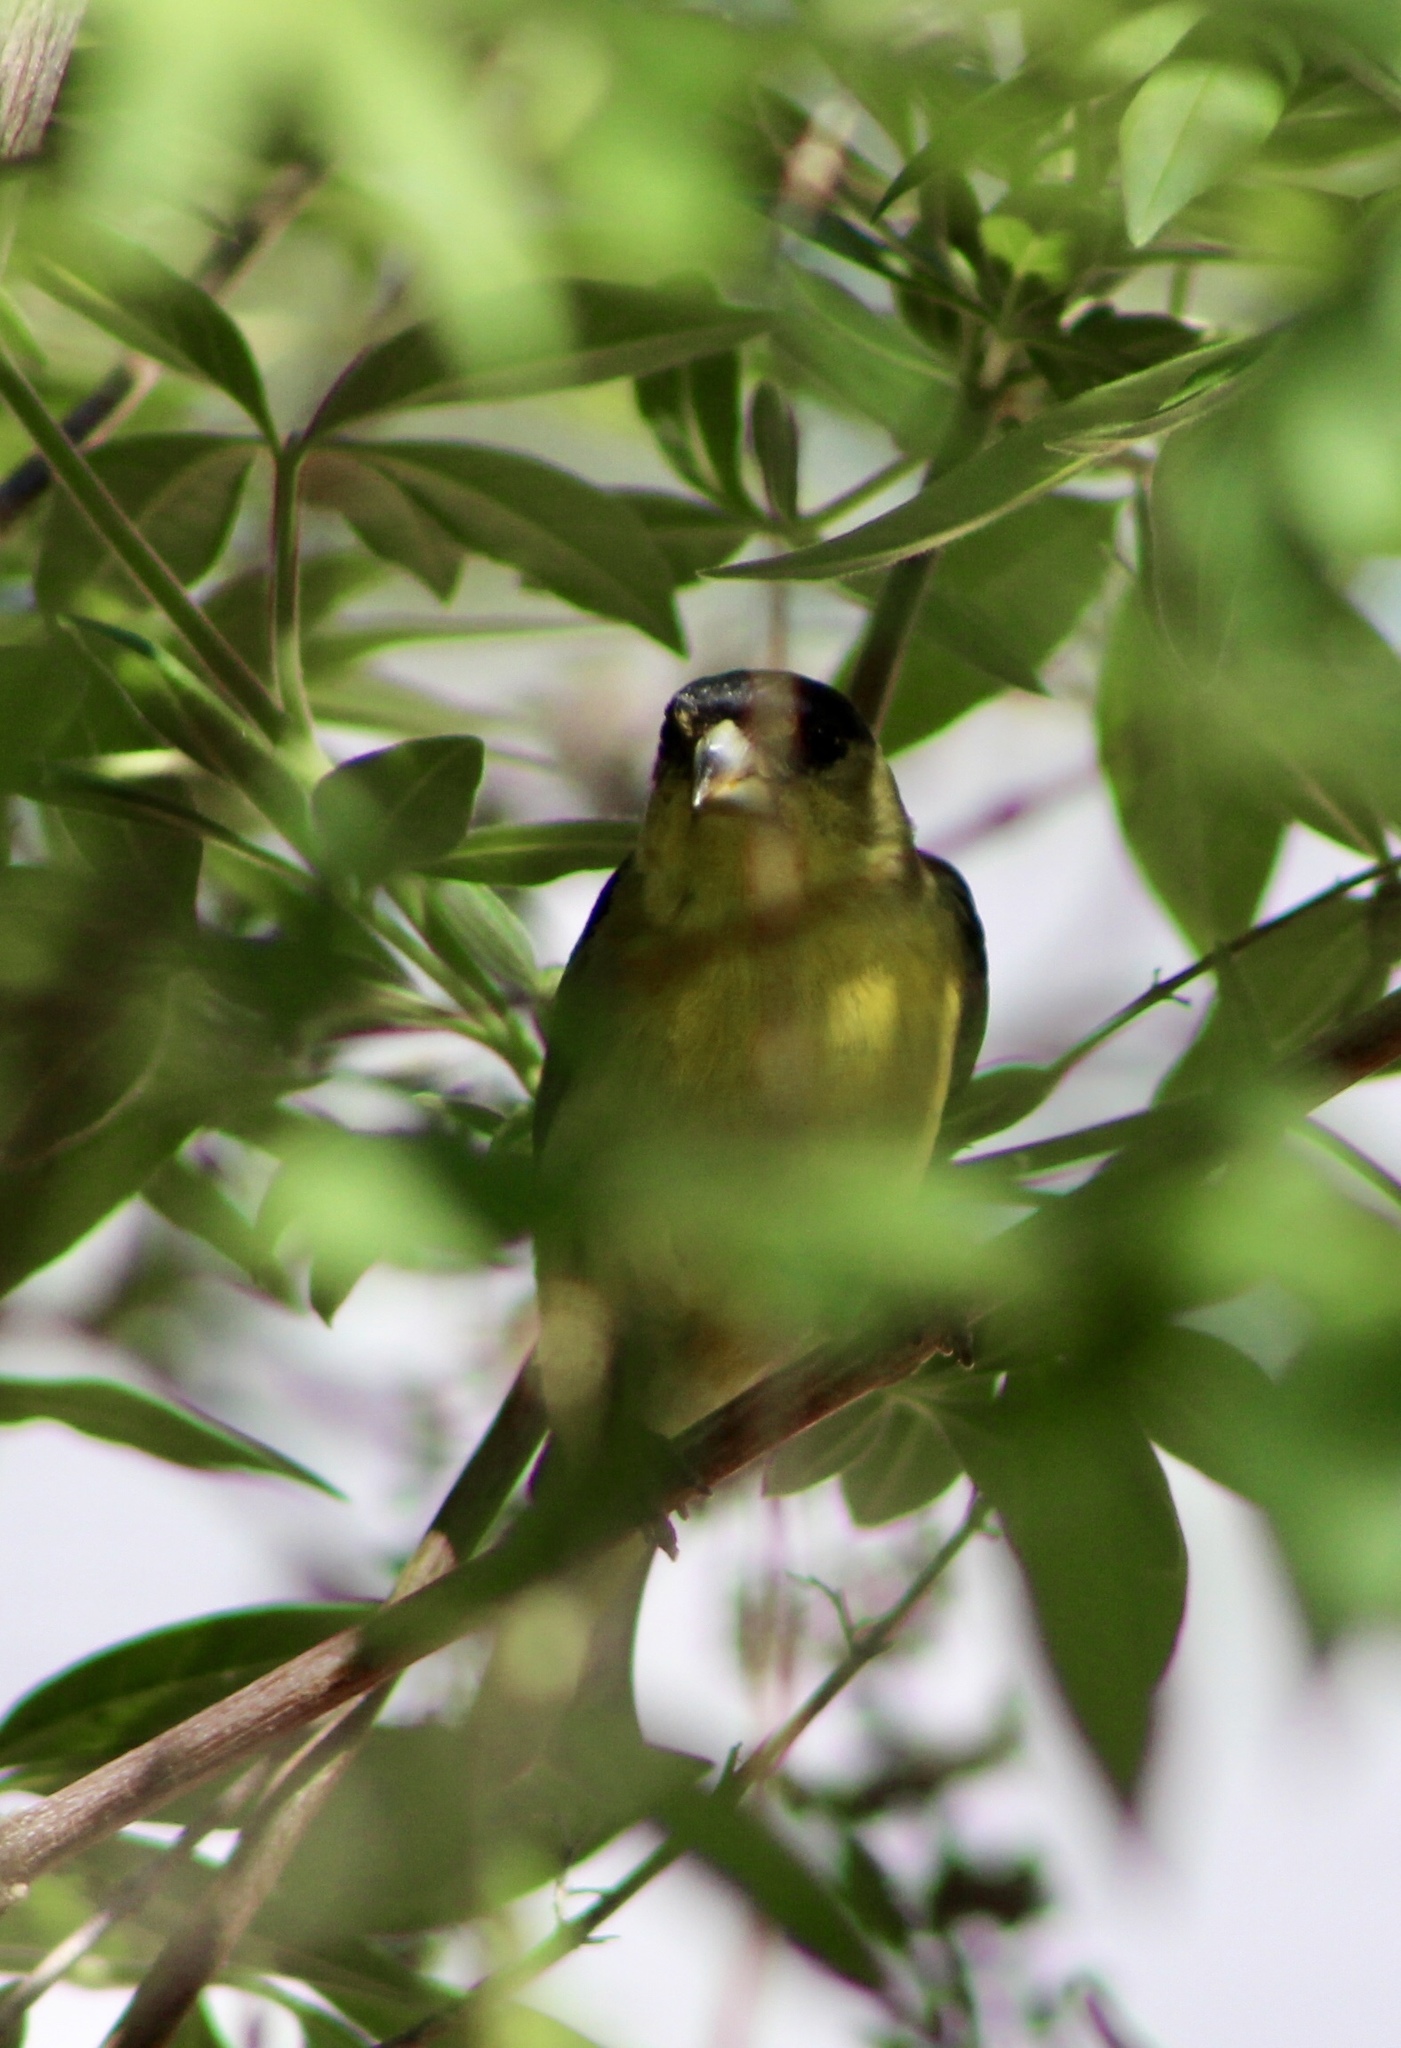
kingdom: Animalia
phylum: Chordata
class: Aves
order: Passeriformes
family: Fringillidae
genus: Spinus
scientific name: Spinus psaltria
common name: Lesser goldfinch
